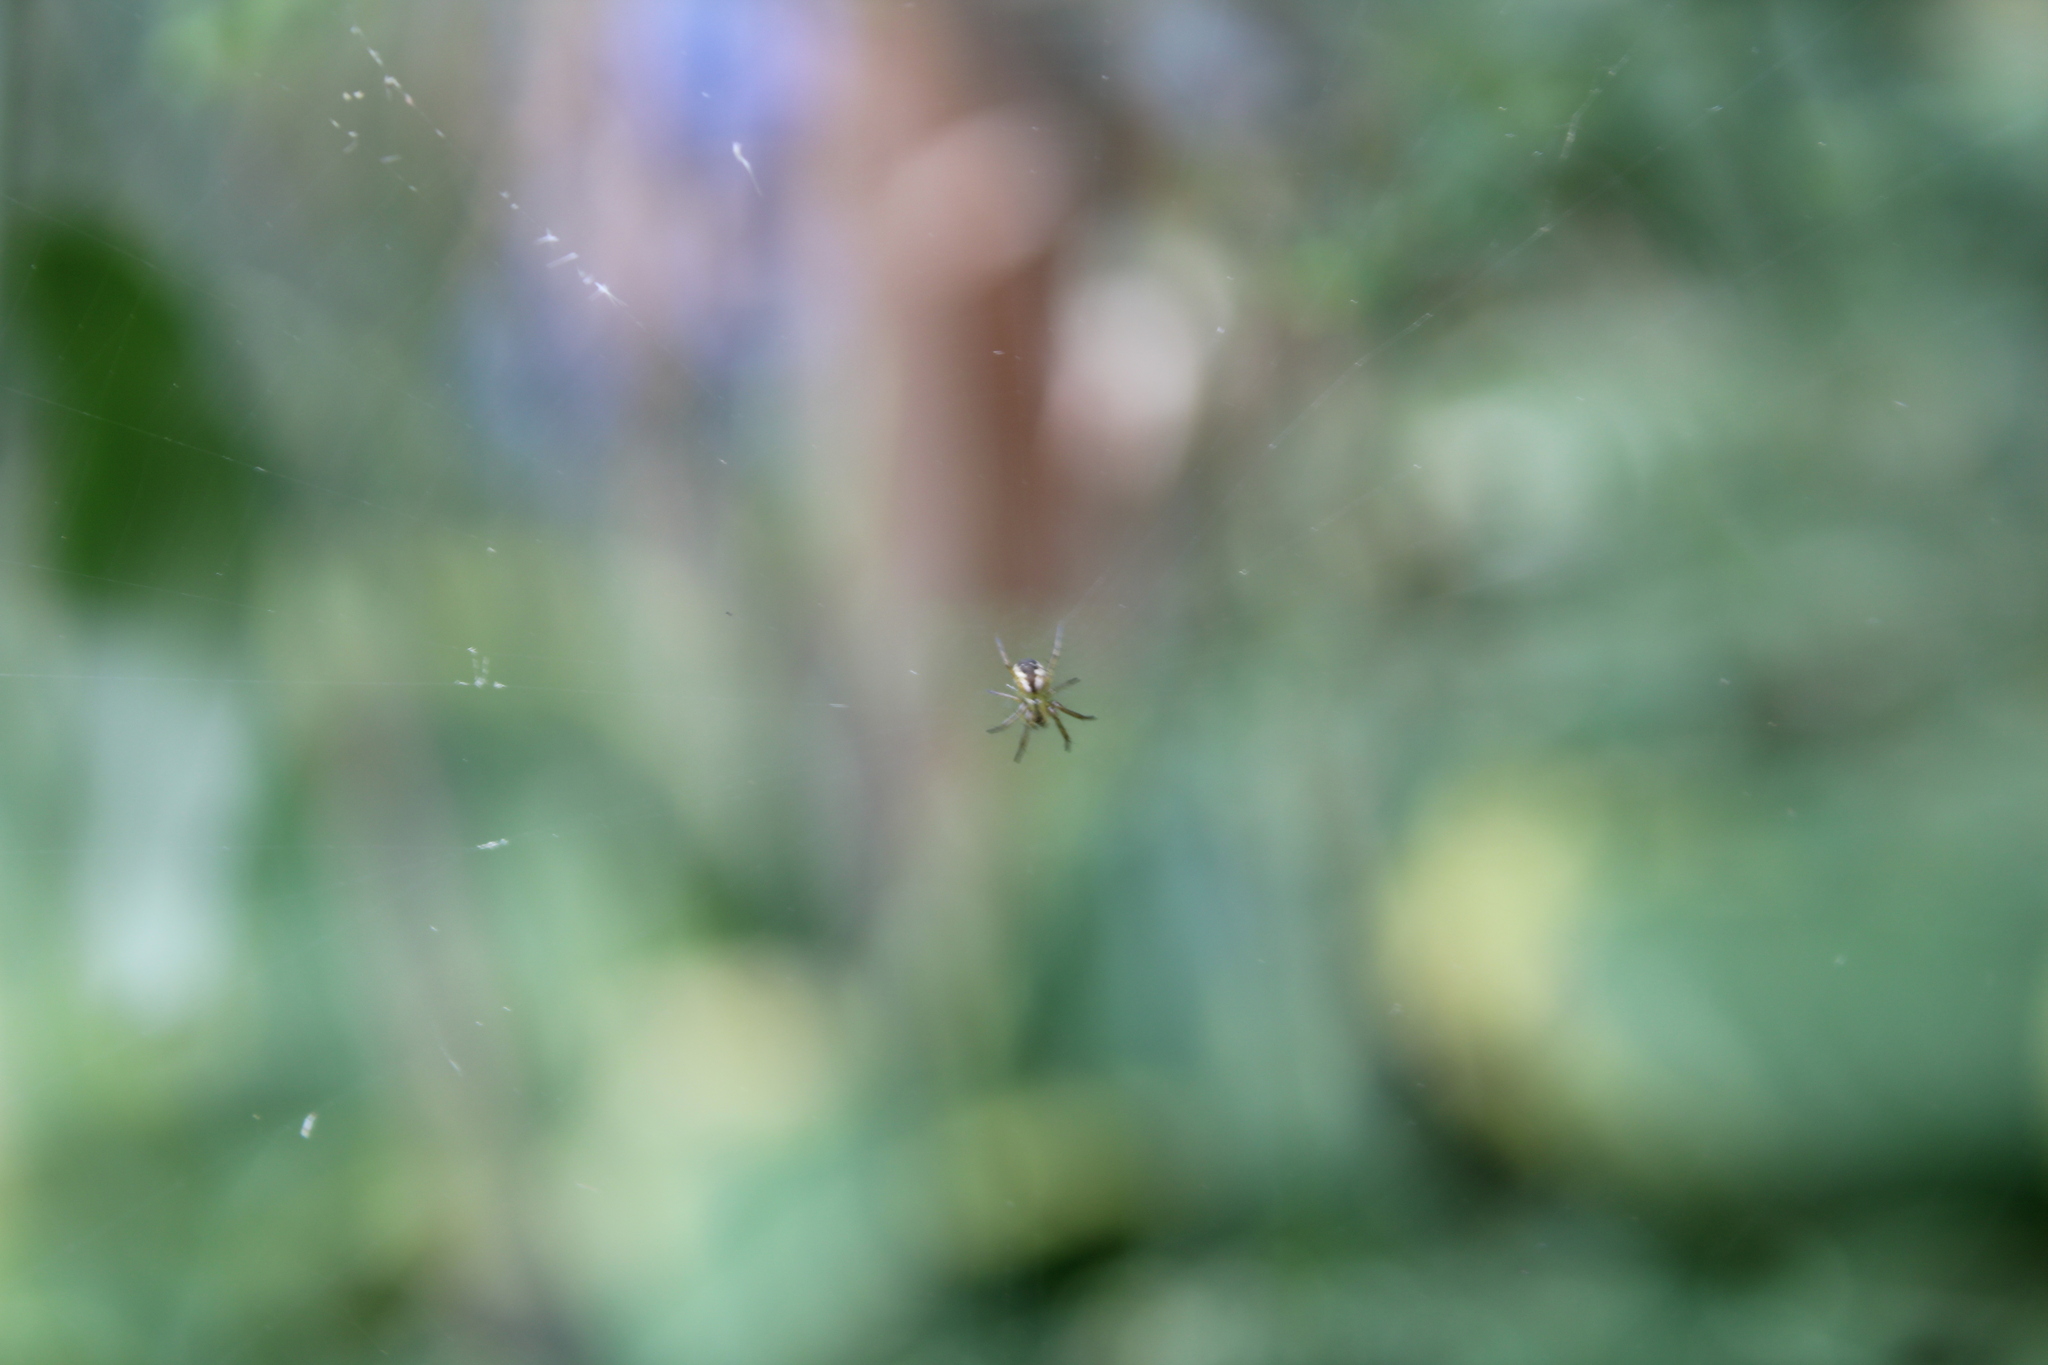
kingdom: Animalia
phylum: Arthropoda
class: Arachnida
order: Araneae
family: Araneidae
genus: Mangora
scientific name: Mangora placida
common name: Tuft-legged orbweaver
